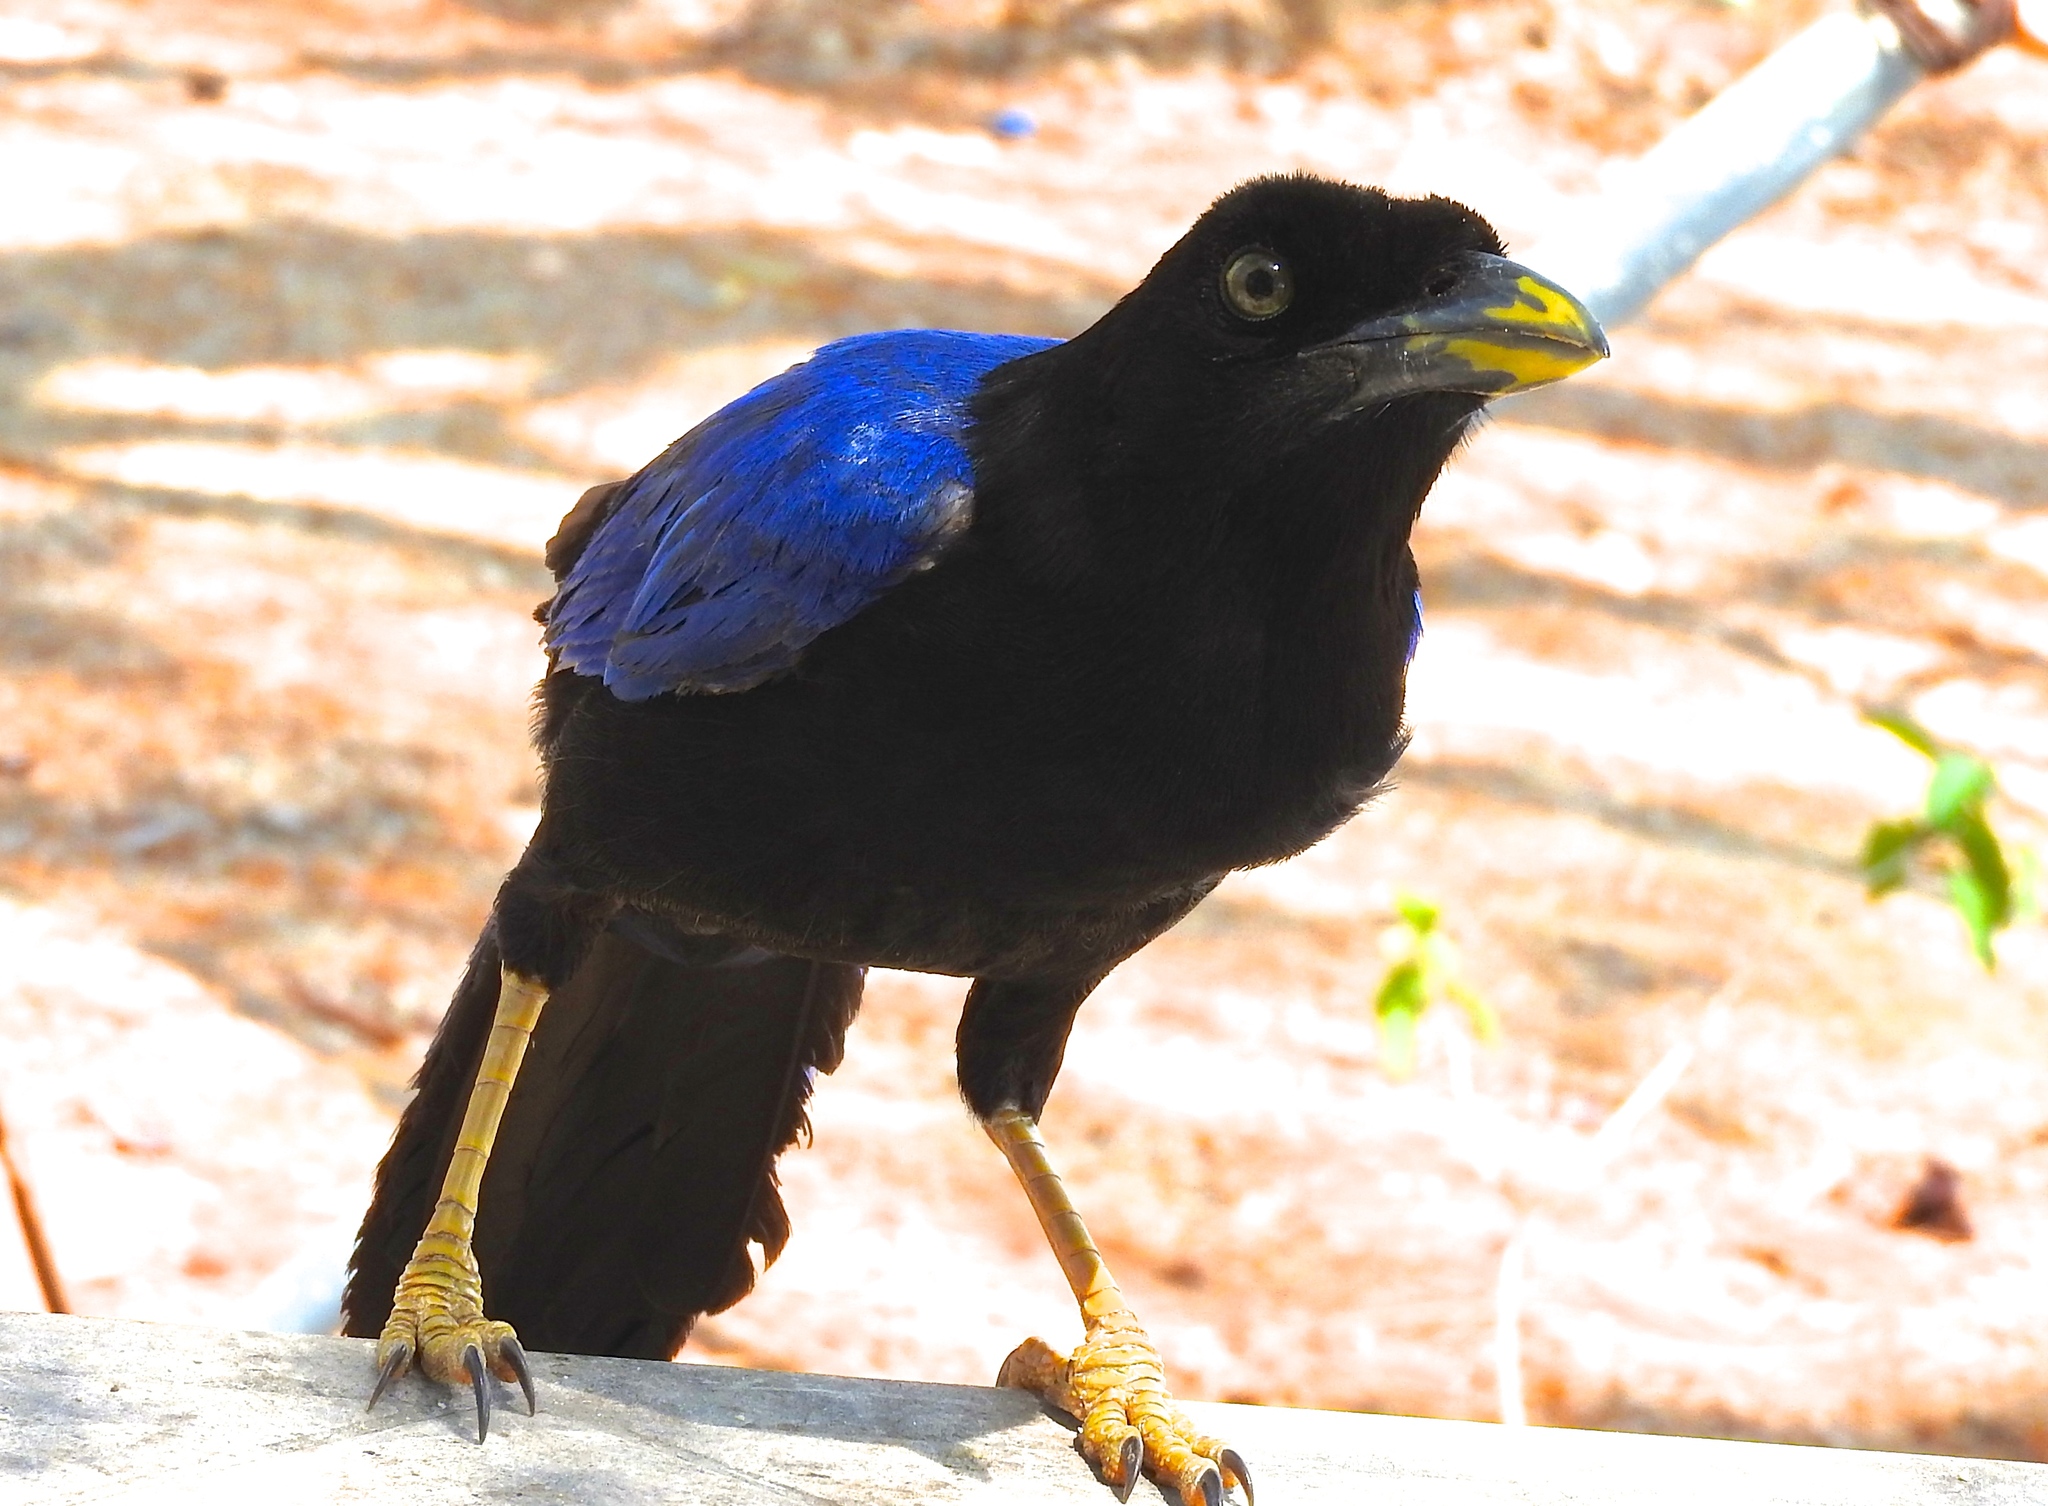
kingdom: Animalia
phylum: Chordata
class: Aves
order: Passeriformes
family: Corvidae
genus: Cyanocorax
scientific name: Cyanocorax beecheii
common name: Purplish-backed jay
